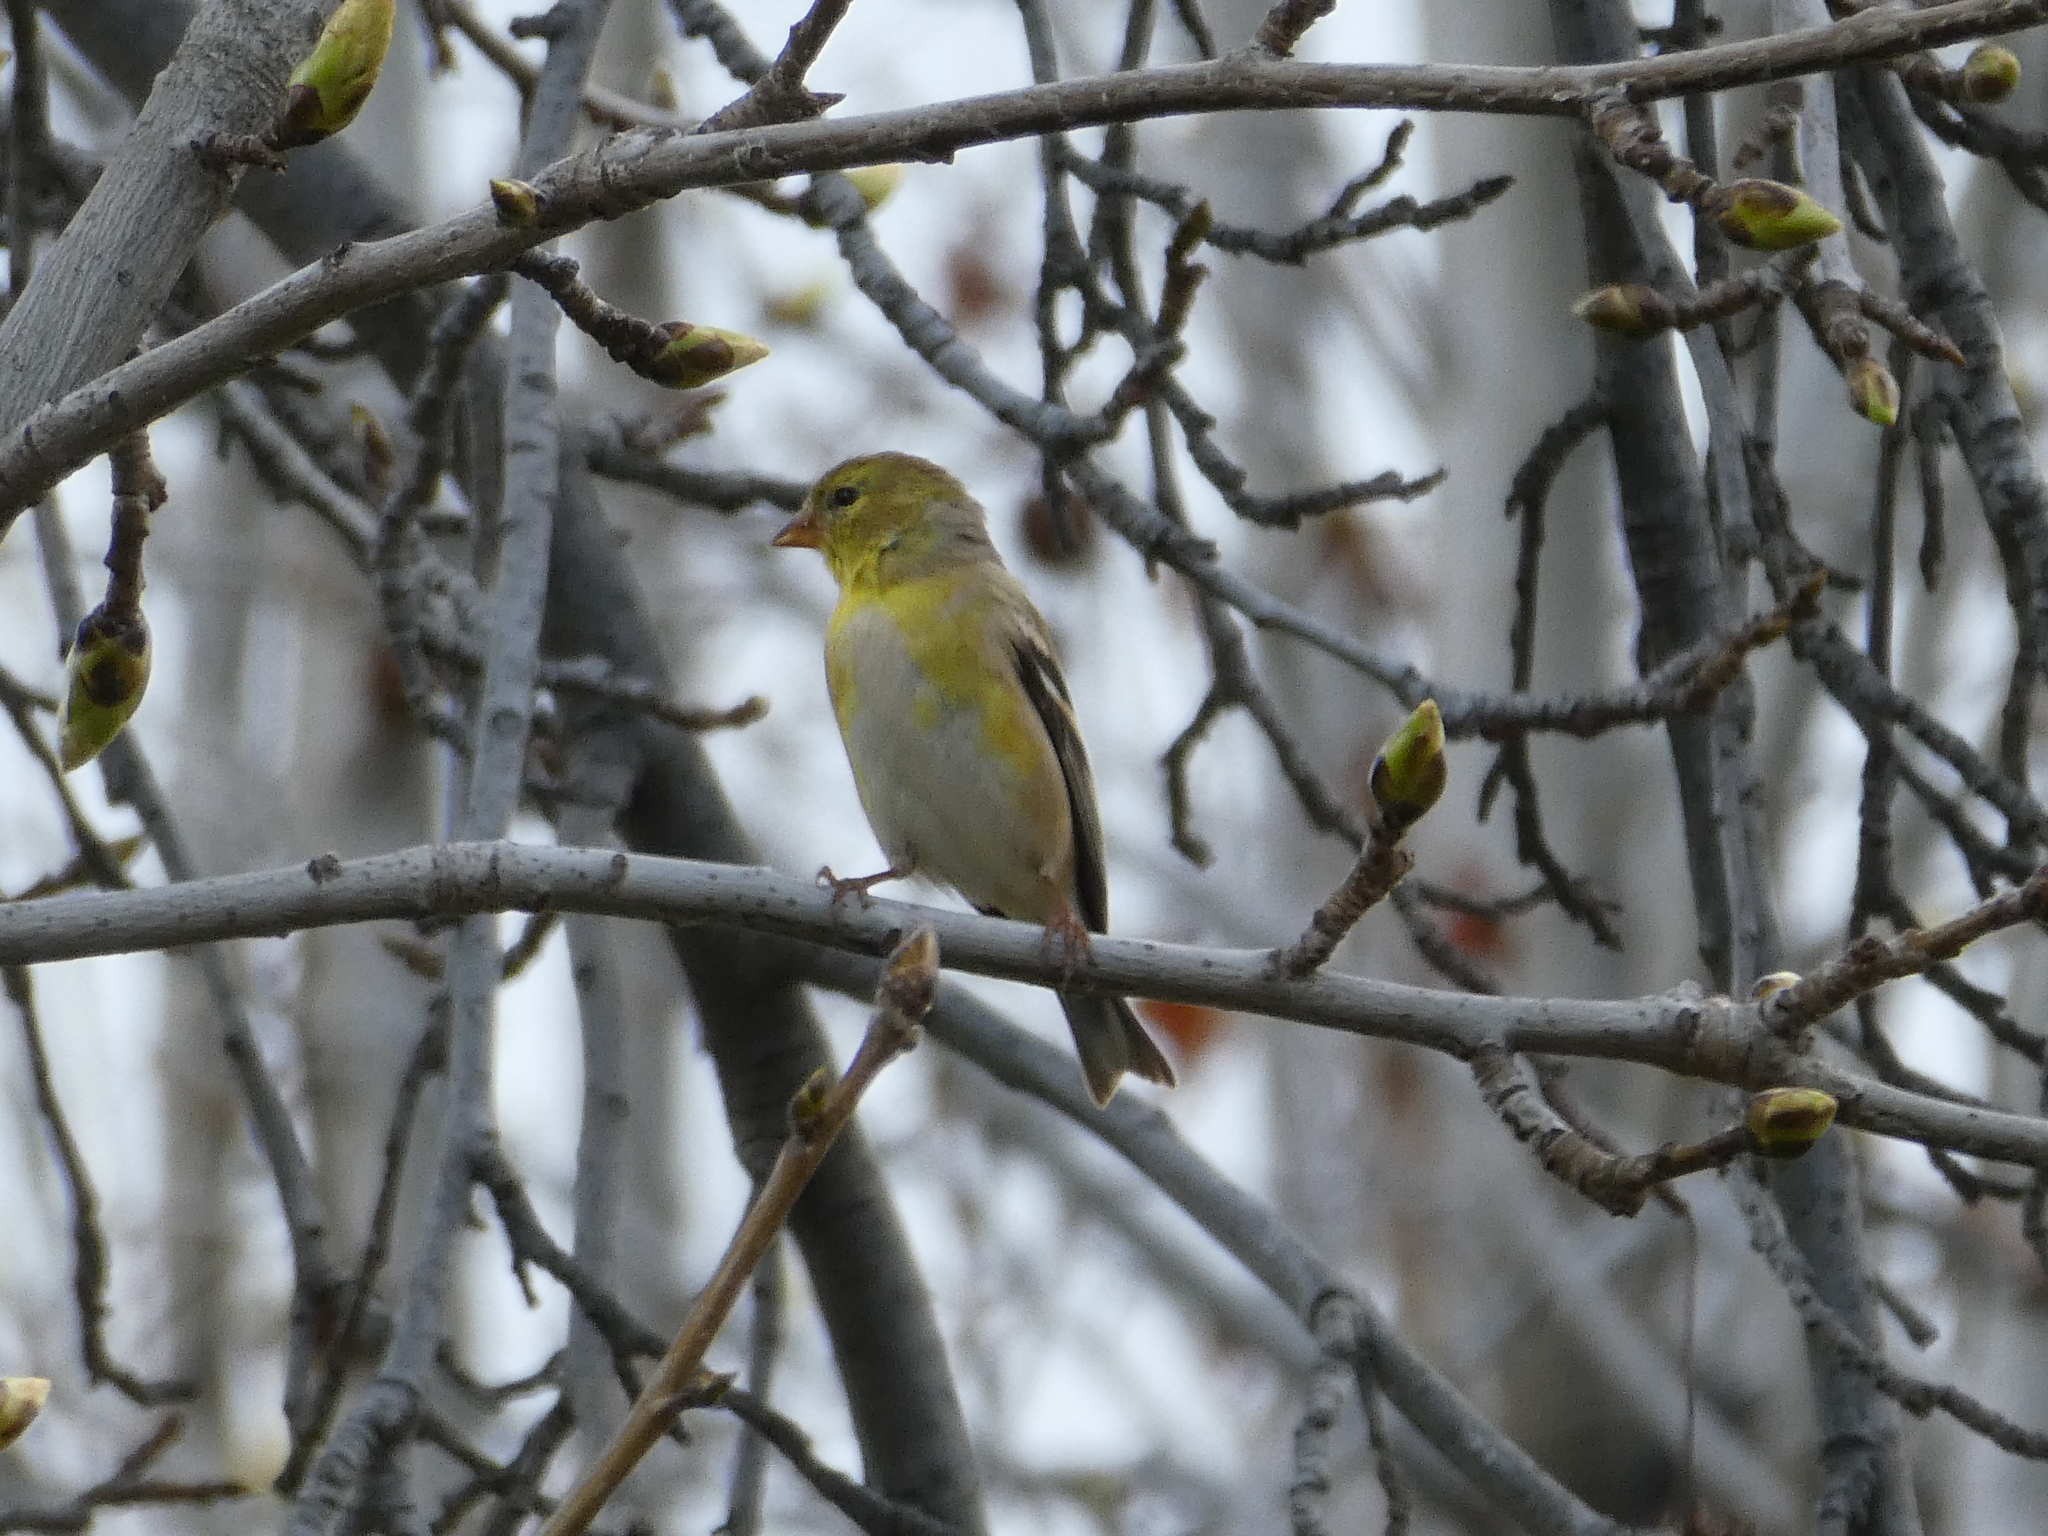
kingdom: Animalia
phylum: Chordata
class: Aves
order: Passeriformes
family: Fringillidae
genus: Spinus
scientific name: Spinus tristis
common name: American goldfinch
